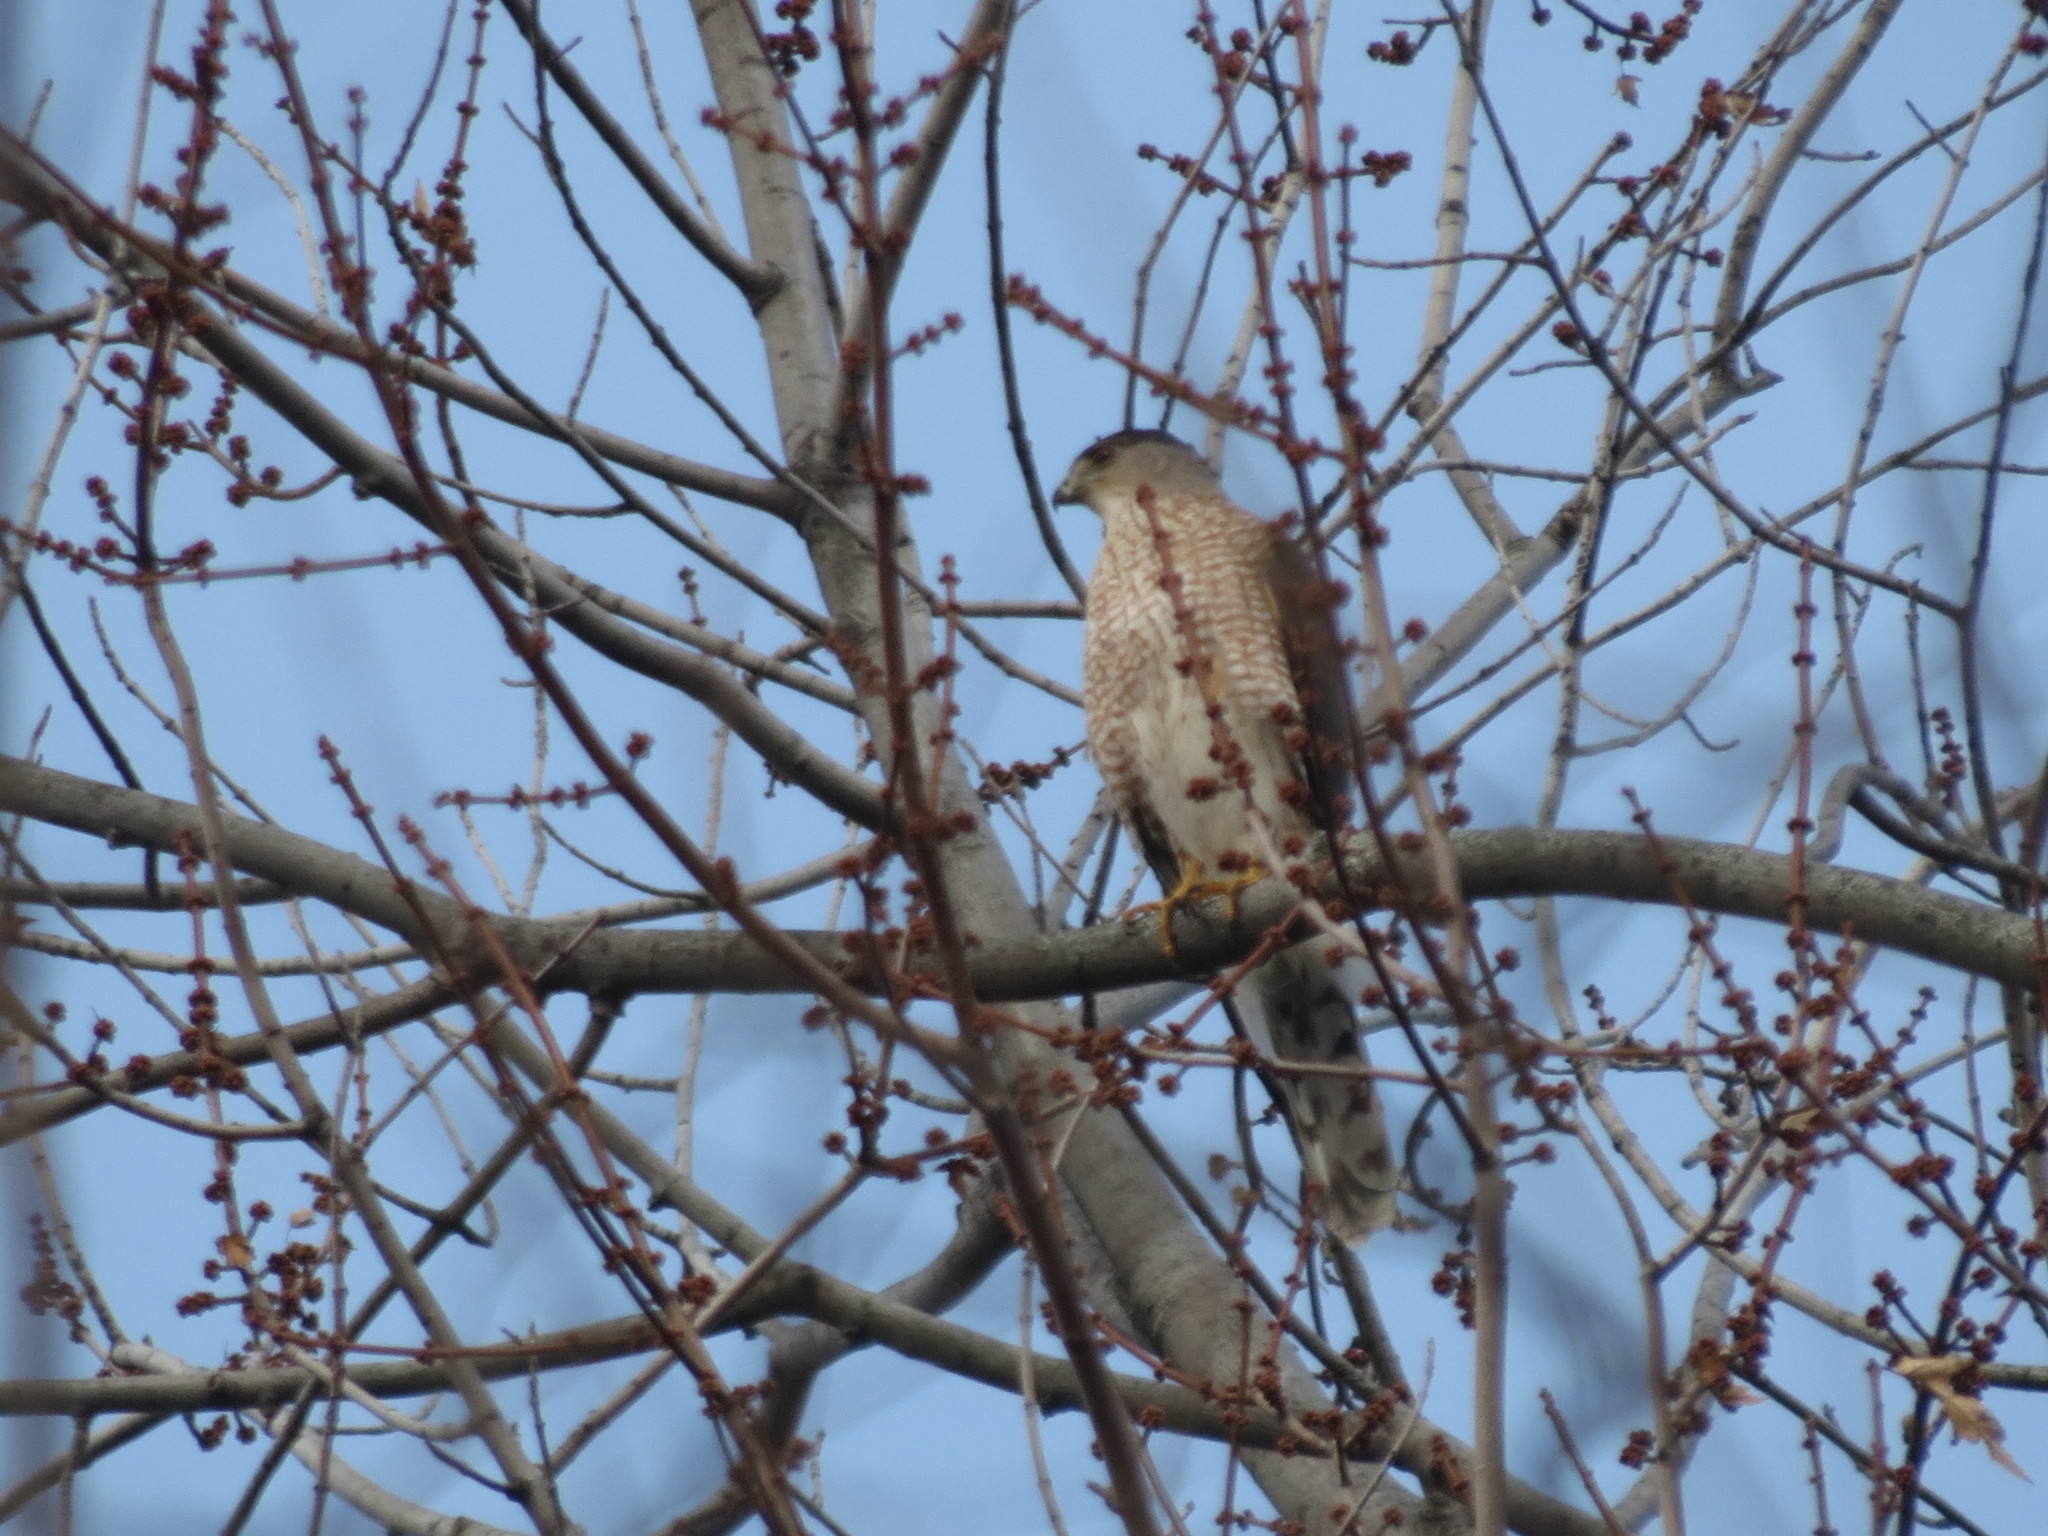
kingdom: Animalia
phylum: Chordata
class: Aves
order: Accipitriformes
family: Accipitridae
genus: Accipiter
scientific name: Accipiter cooperii
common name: Cooper's hawk
